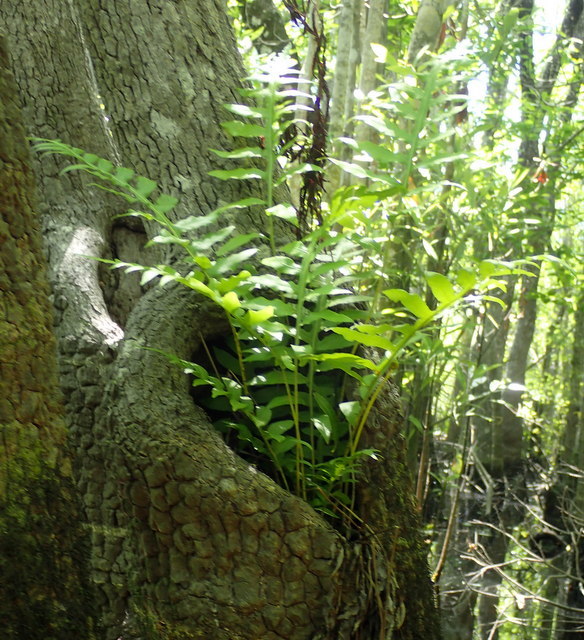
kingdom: Plantae
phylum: Tracheophyta
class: Polypodiopsida
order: Polypodiales
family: Blechnaceae
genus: Lorinseria
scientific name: Lorinseria areolata
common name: Dwarf chain fern
